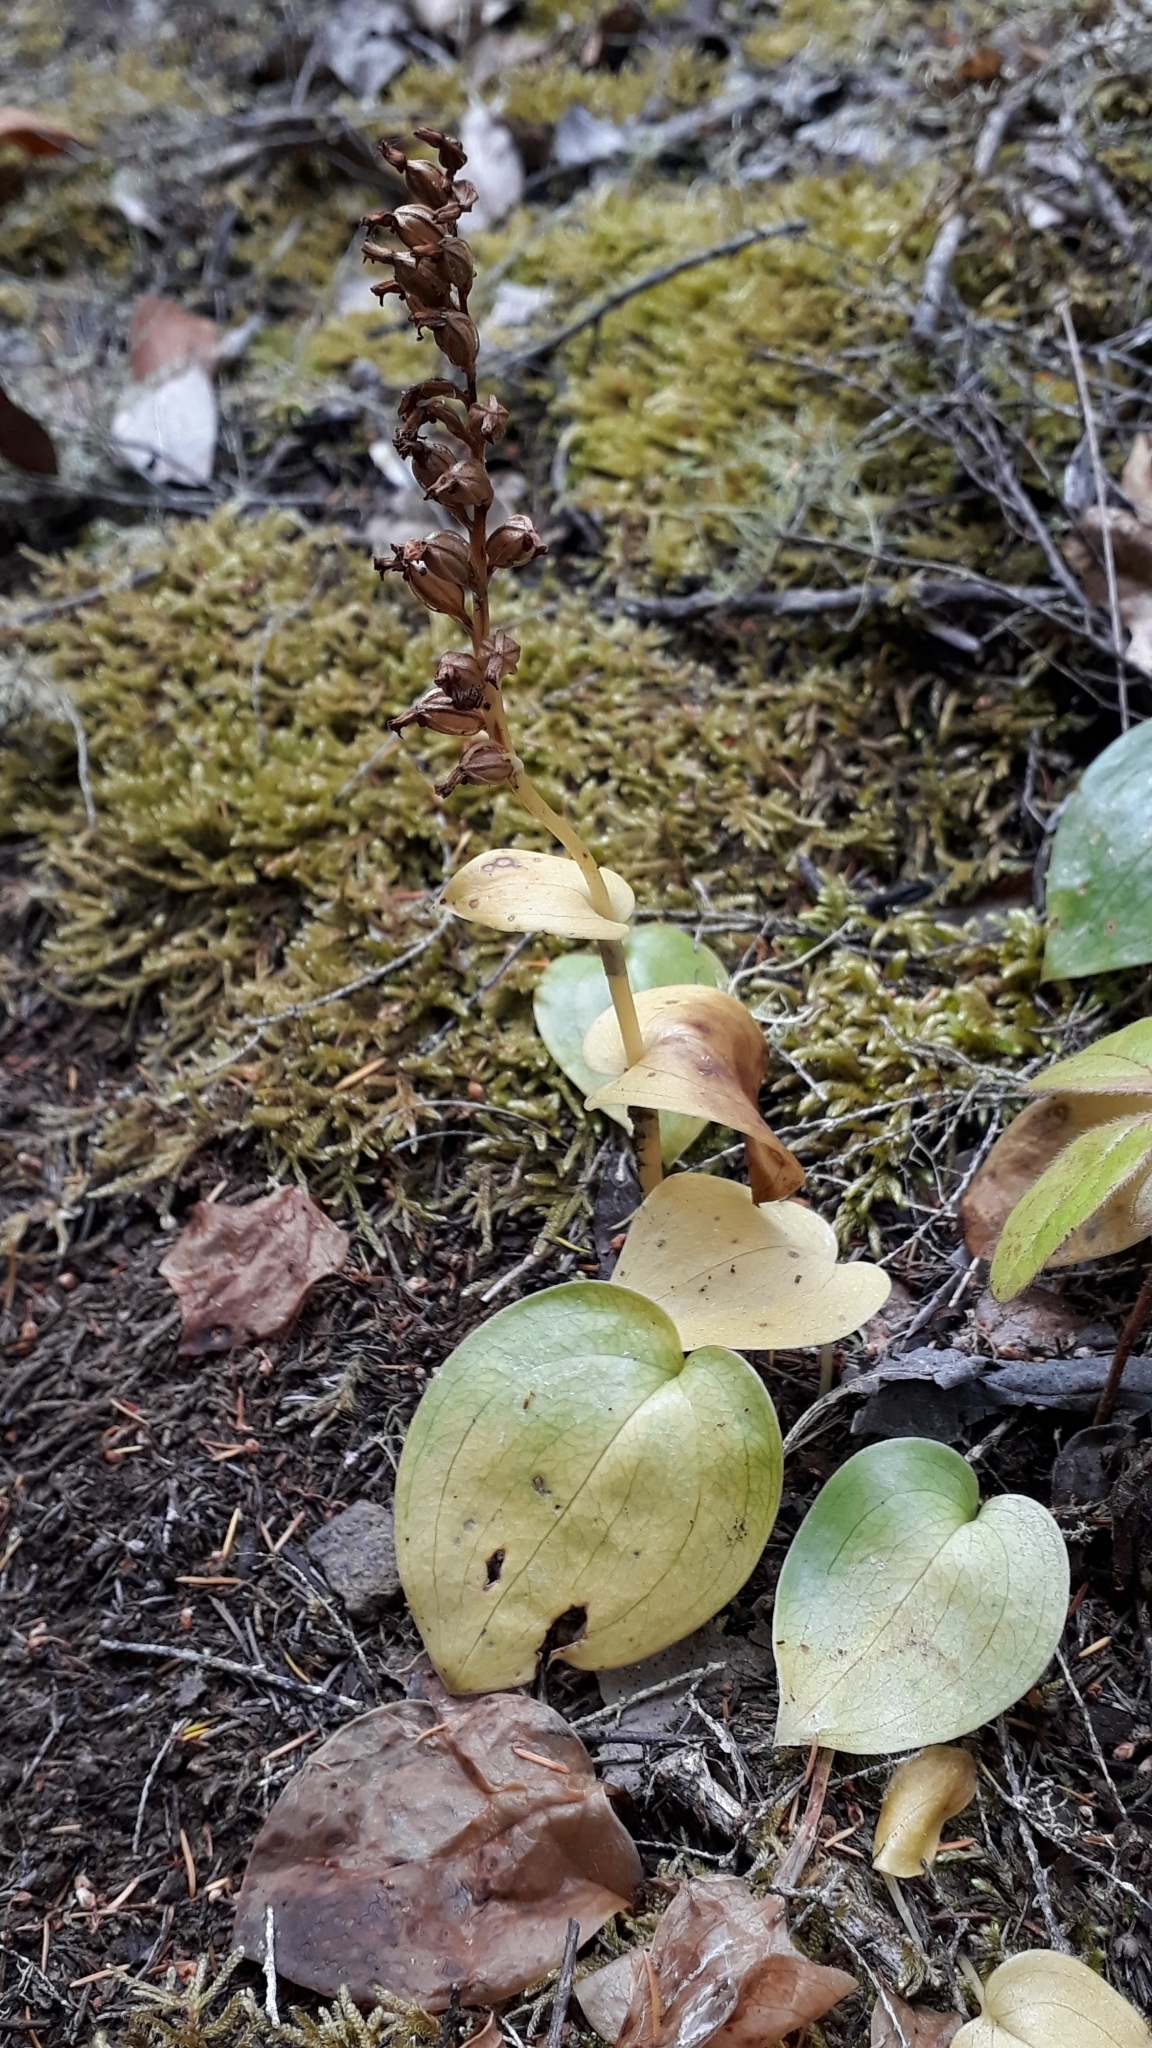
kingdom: Plantae
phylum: Tracheophyta
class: Liliopsida
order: Asparagales
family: Orchidaceae
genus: Gennaria
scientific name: Gennaria diphylla
